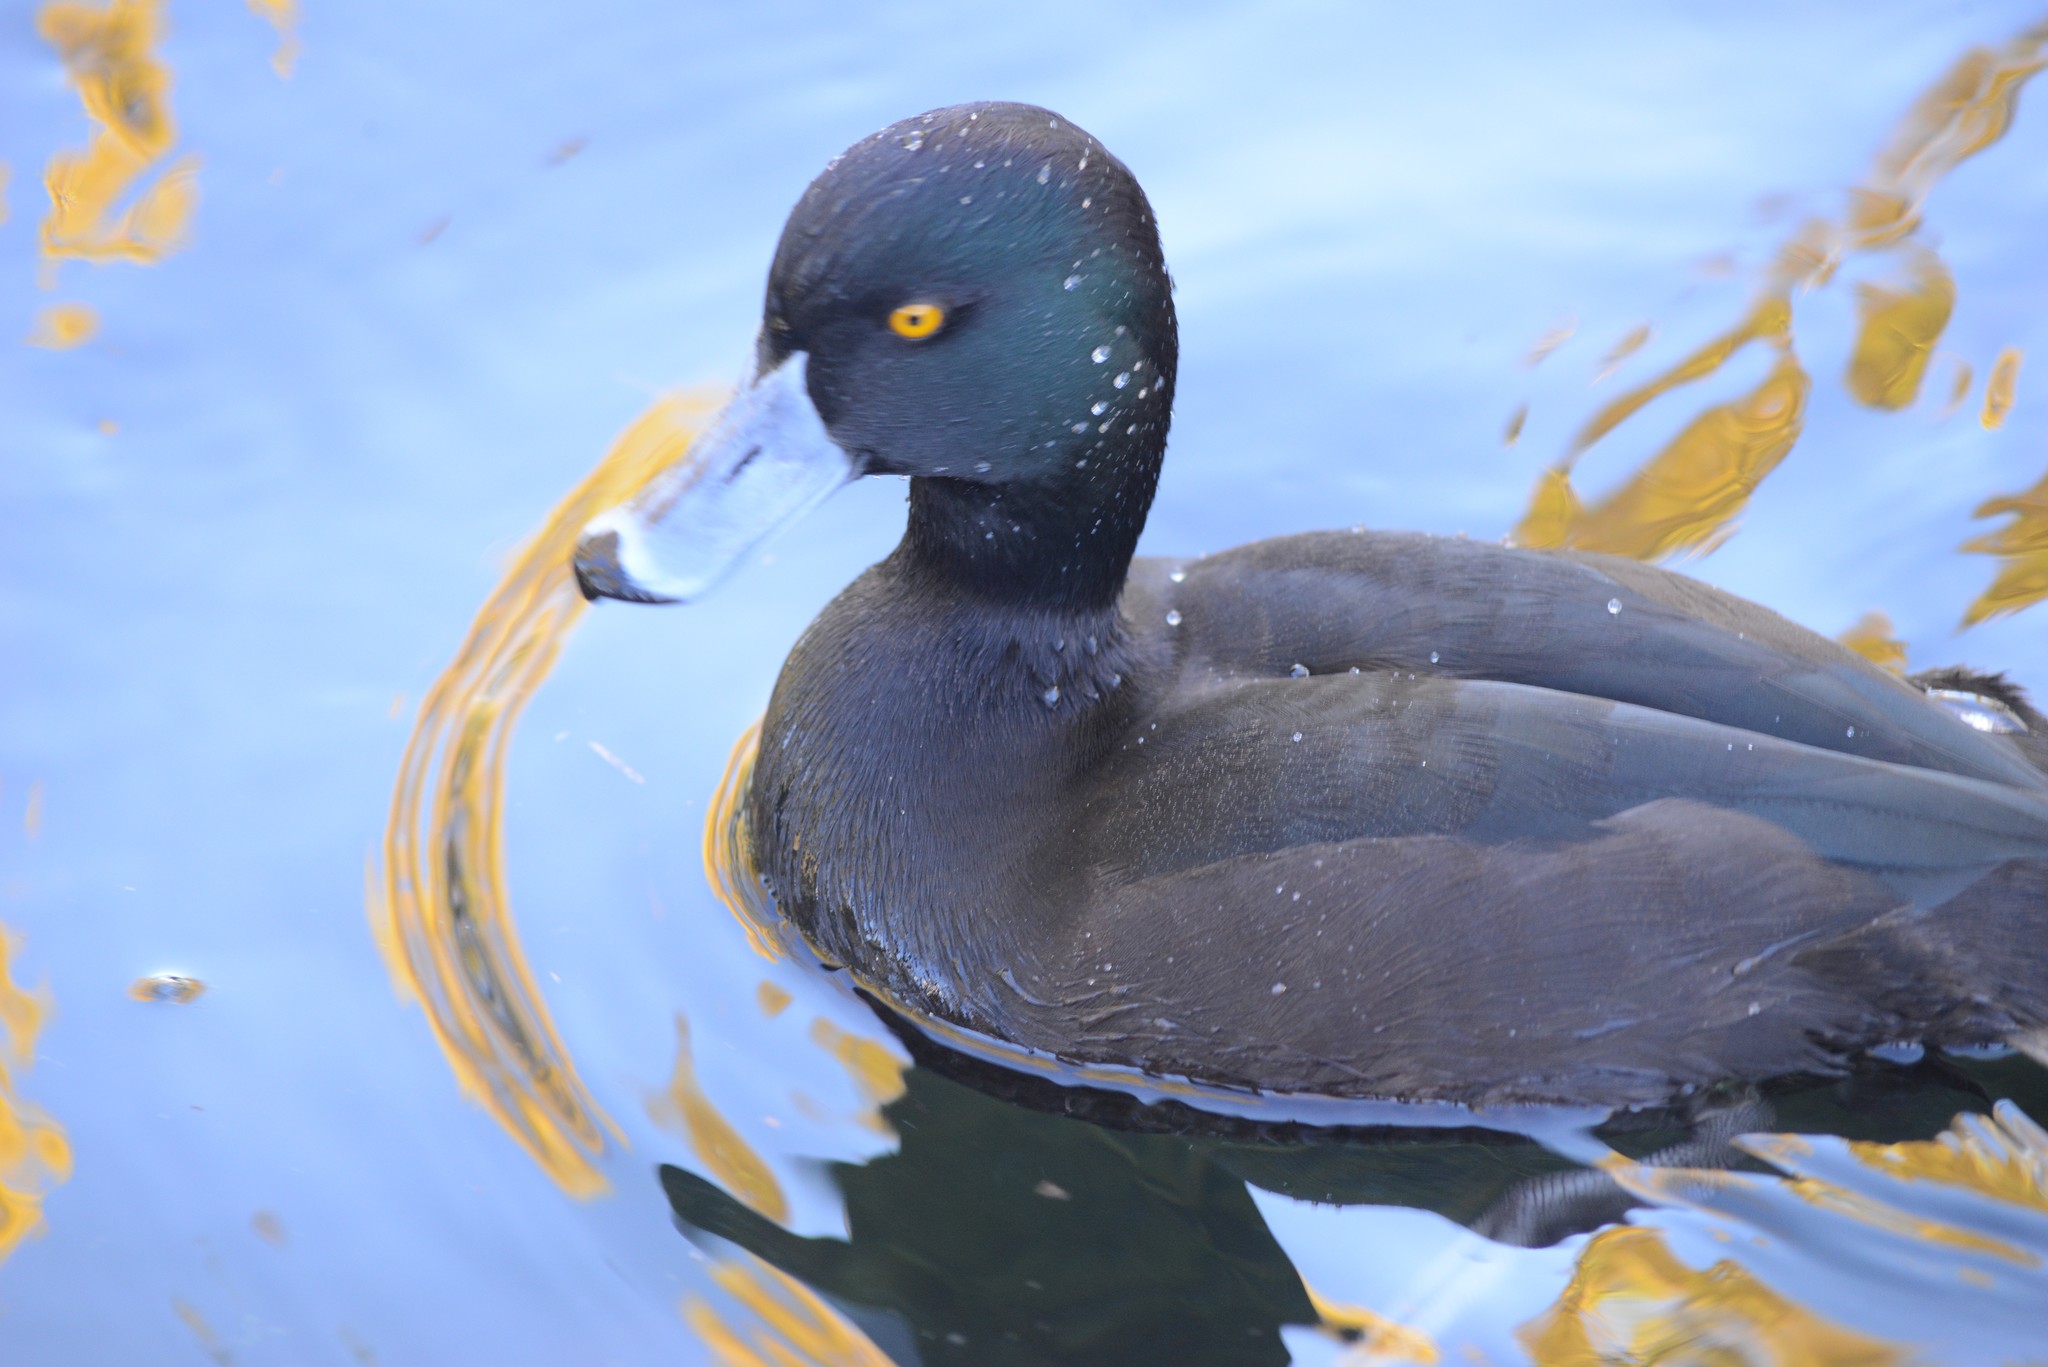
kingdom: Animalia
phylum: Chordata
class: Aves
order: Anseriformes
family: Anatidae
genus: Aythya
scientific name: Aythya novaeseelandiae
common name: New zealand scaup
